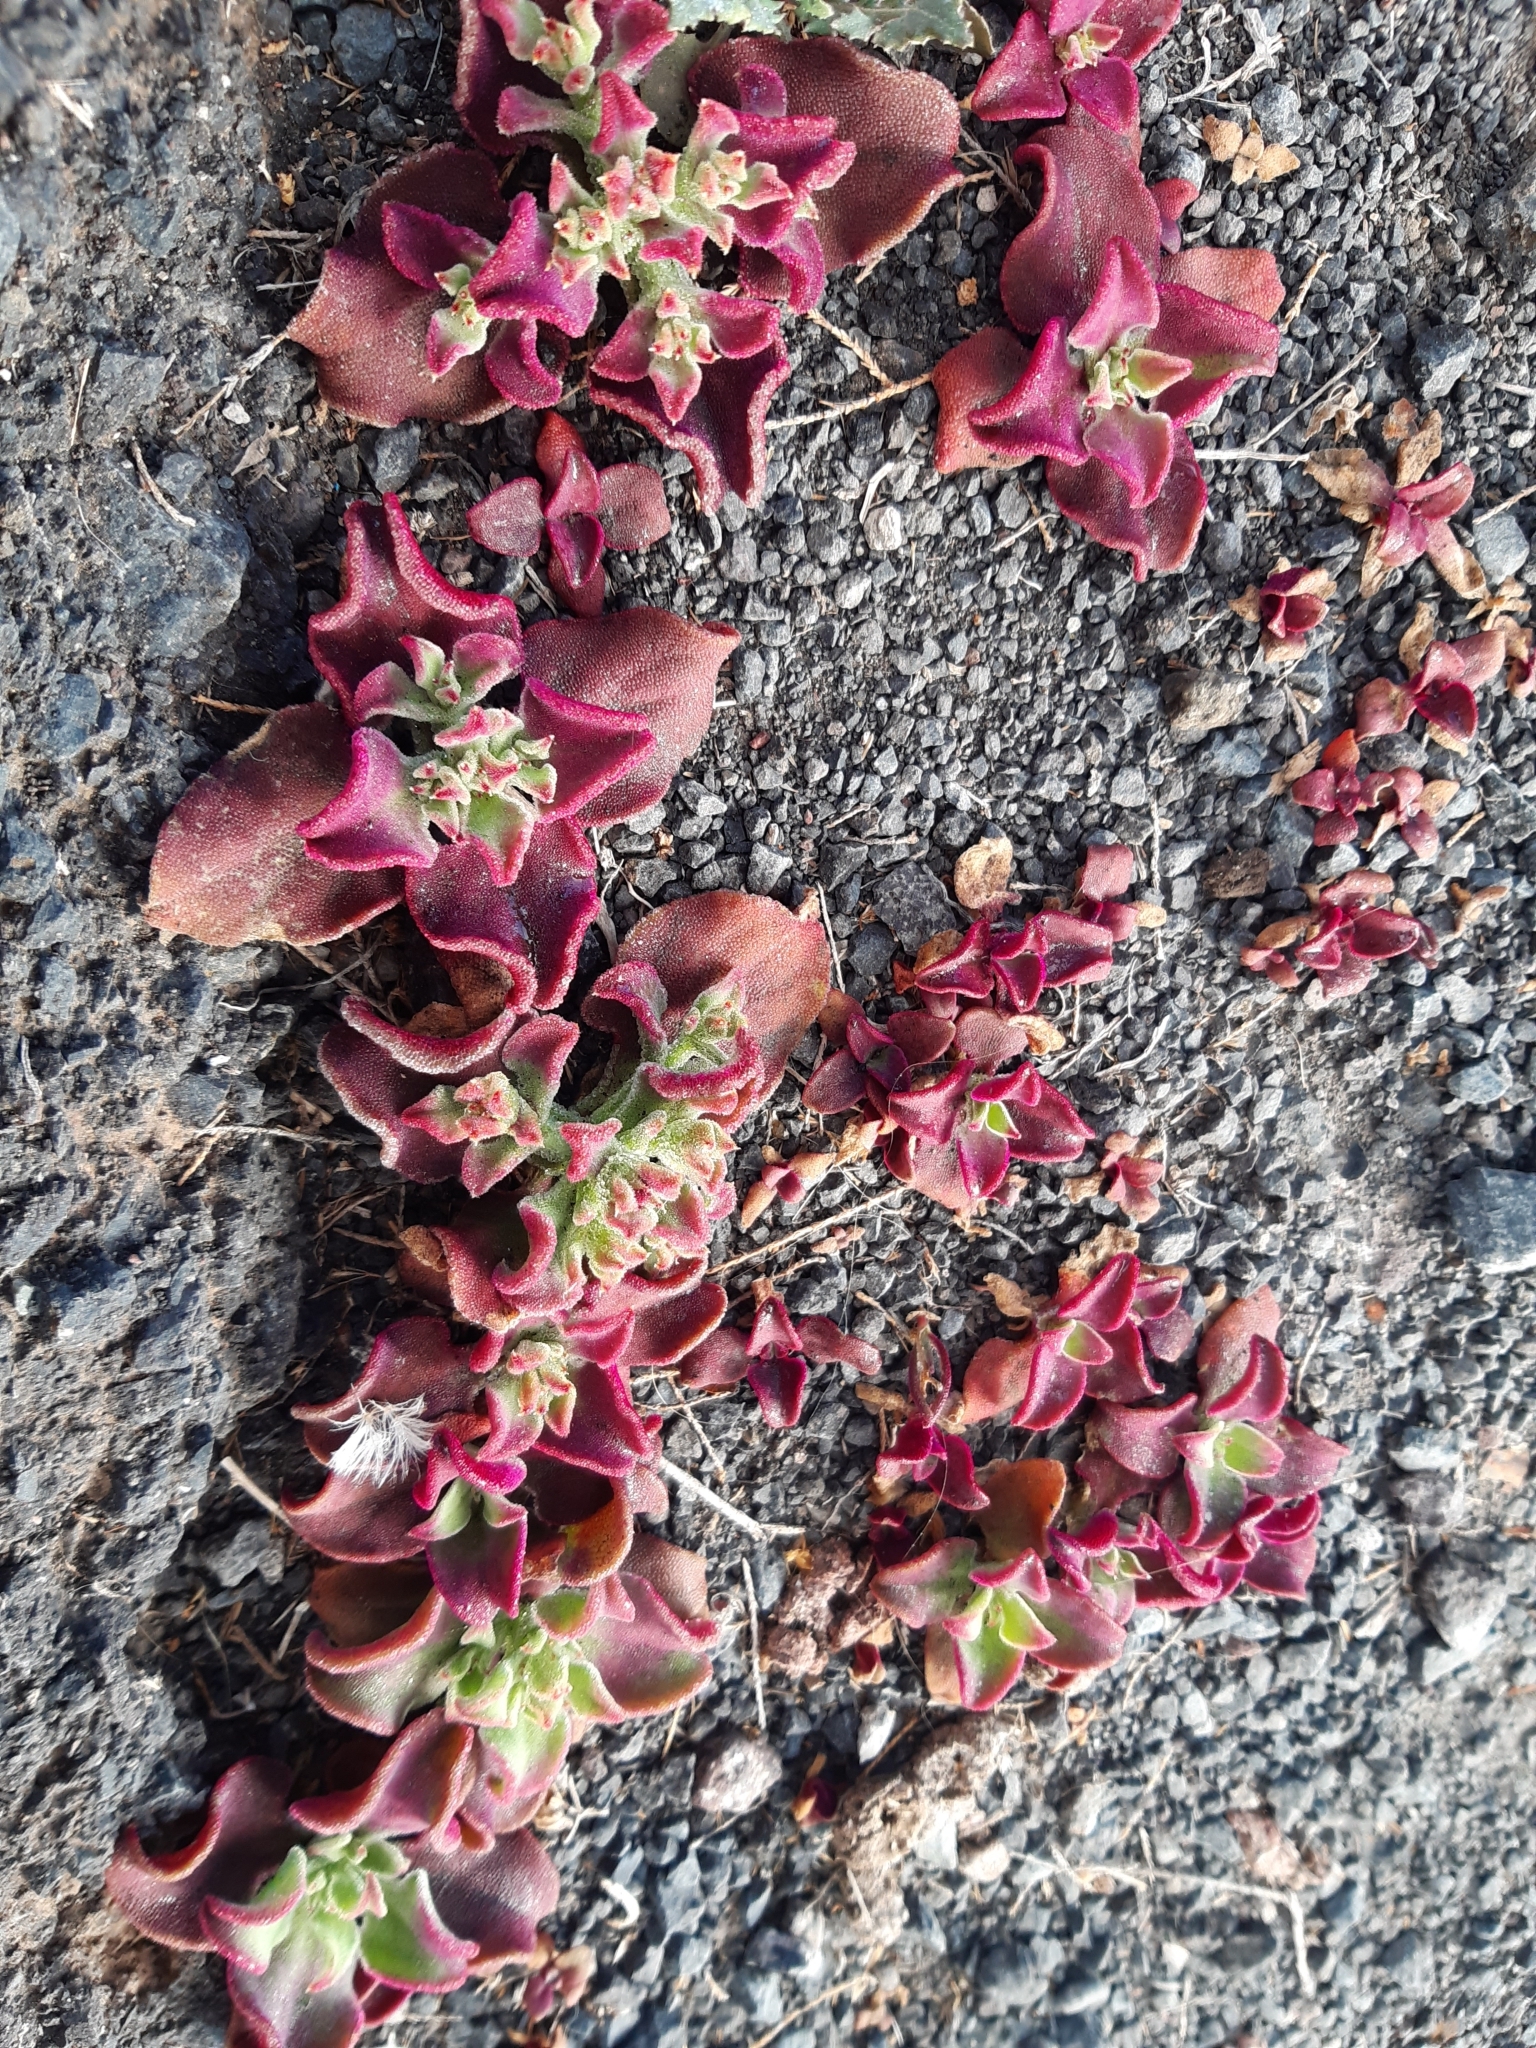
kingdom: Plantae
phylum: Tracheophyta
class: Magnoliopsida
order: Caryophyllales
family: Aizoaceae
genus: Mesembryanthemum
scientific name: Mesembryanthemum crystallinum
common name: Common iceplant
